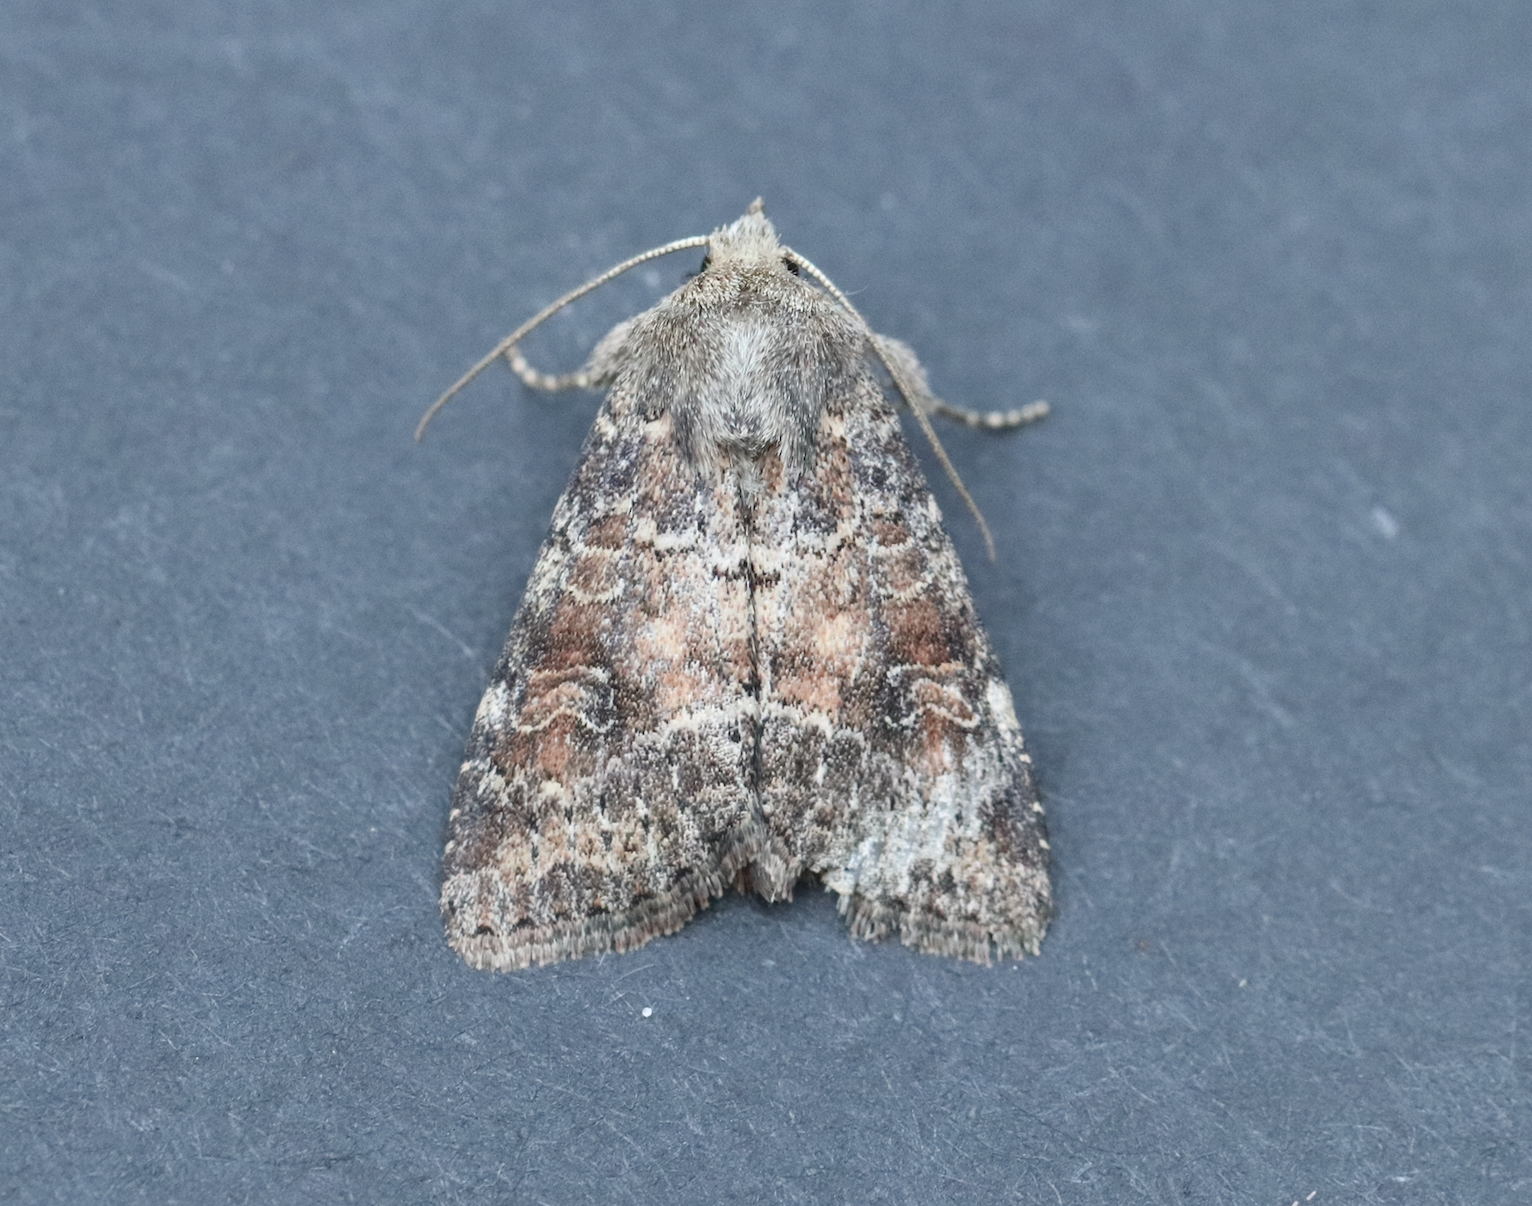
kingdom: Animalia
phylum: Arthropoda
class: Insecta
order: Lepidoptera
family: Noctuidae
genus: Parastichtis
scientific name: Parastichtis suspecta
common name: Suspected
